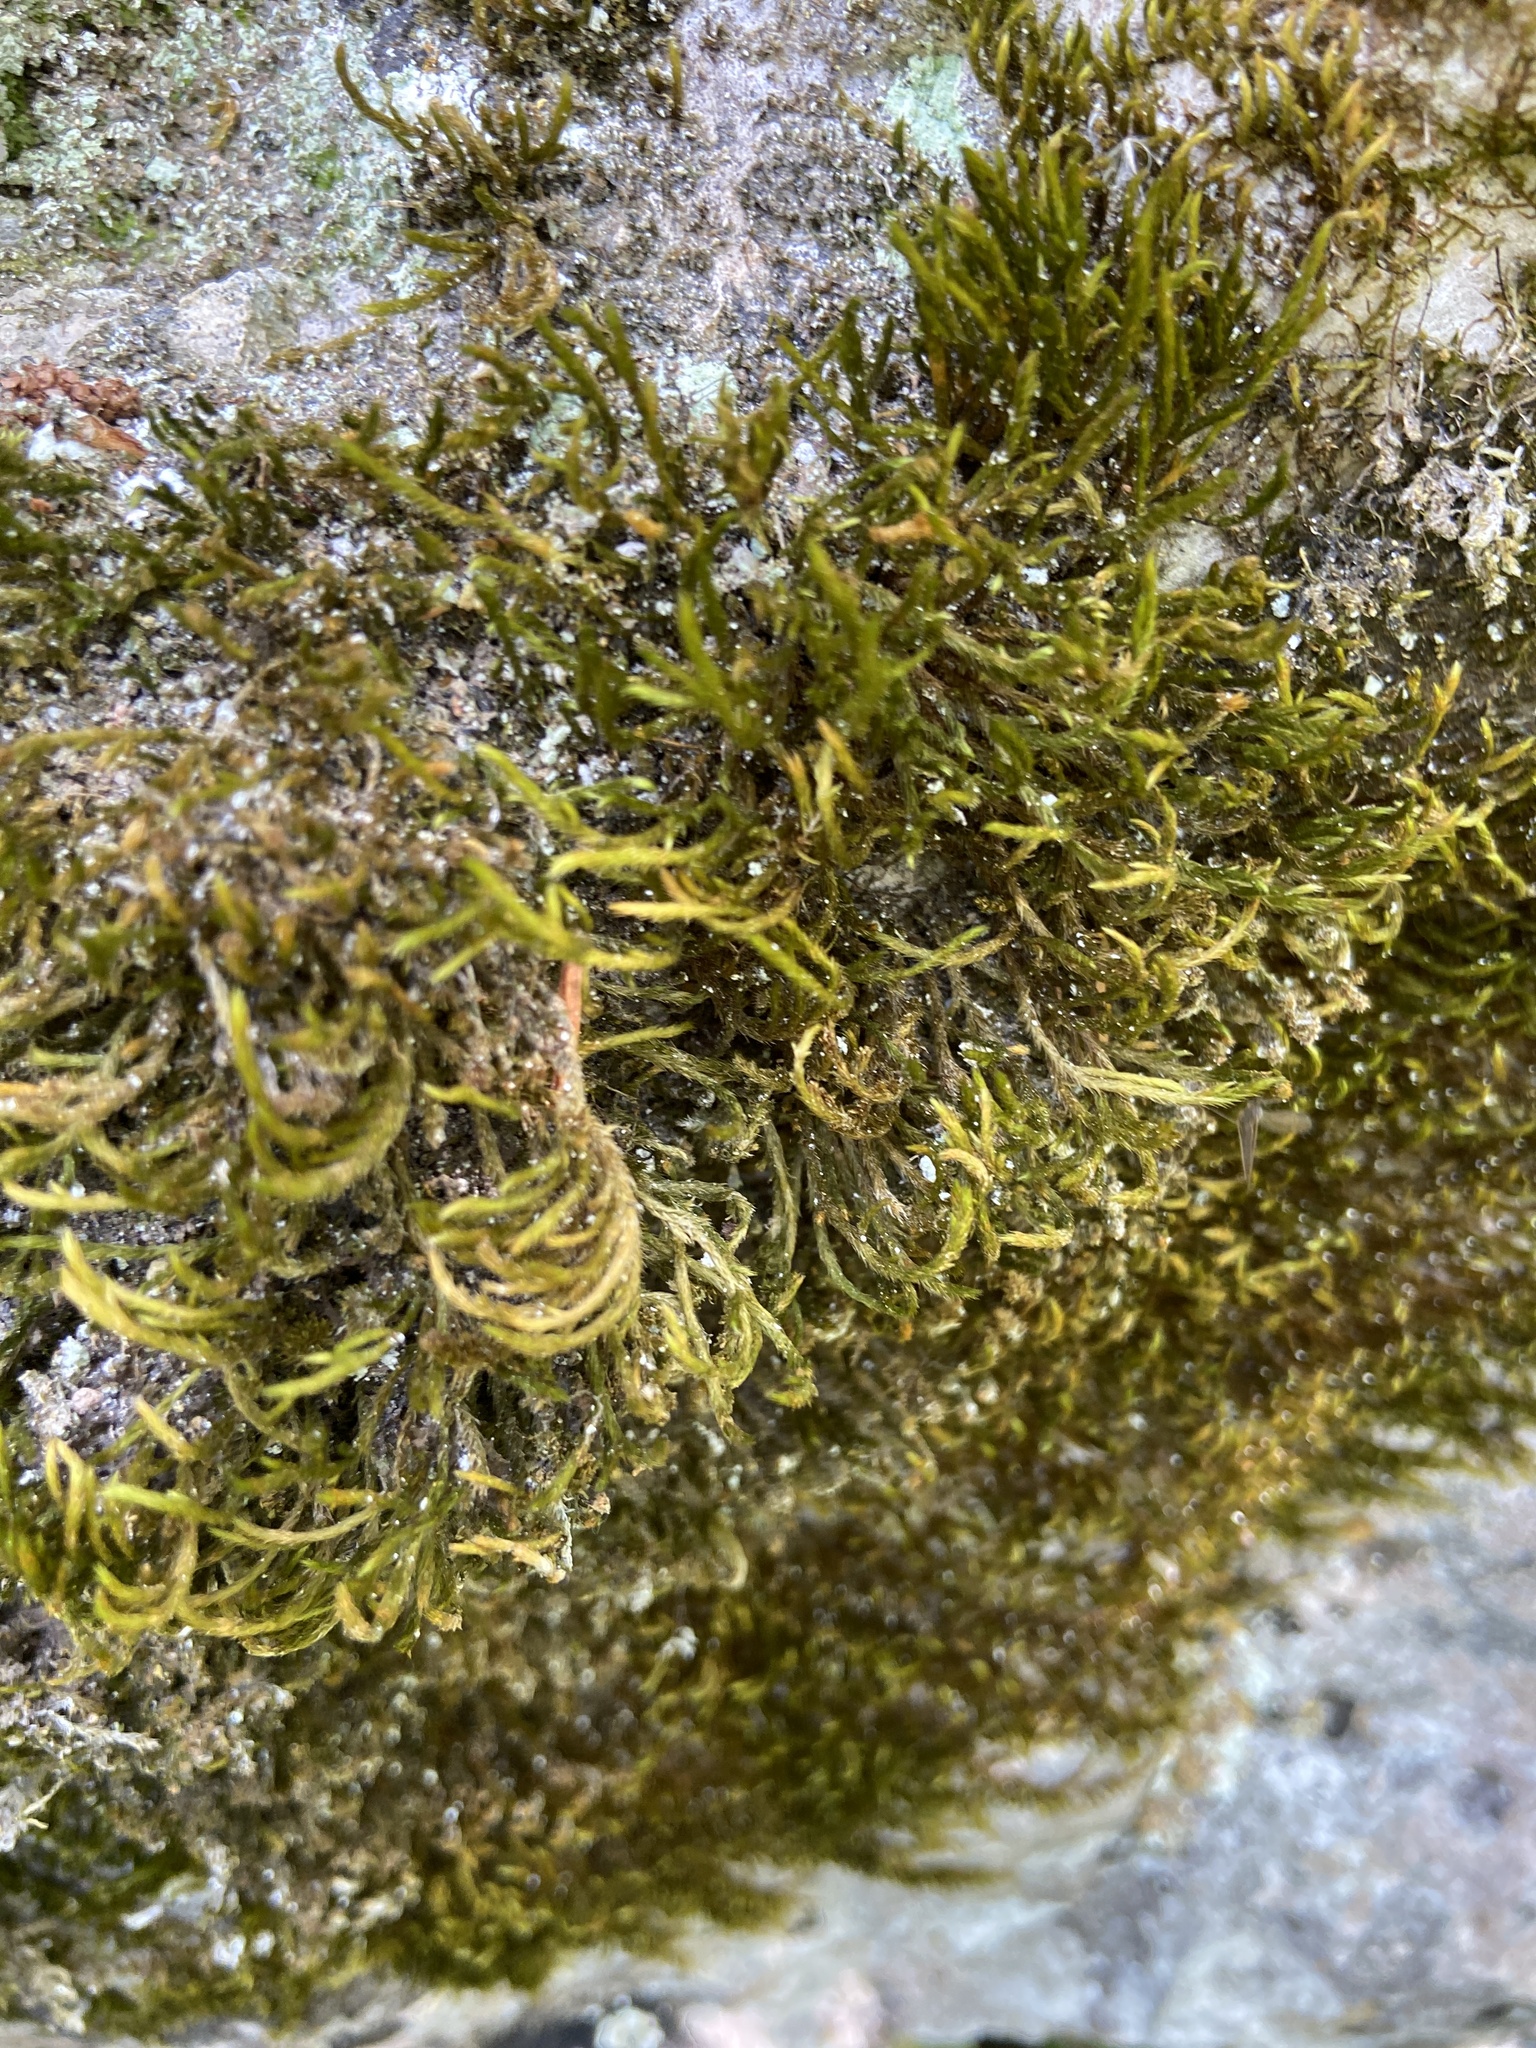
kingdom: Plantae
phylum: Bryophyta
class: Bryopsida
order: Hypnales
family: Leucodontaceae
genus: Leucodon
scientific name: Leucodon sciuroides
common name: Squirrel-tail moss
